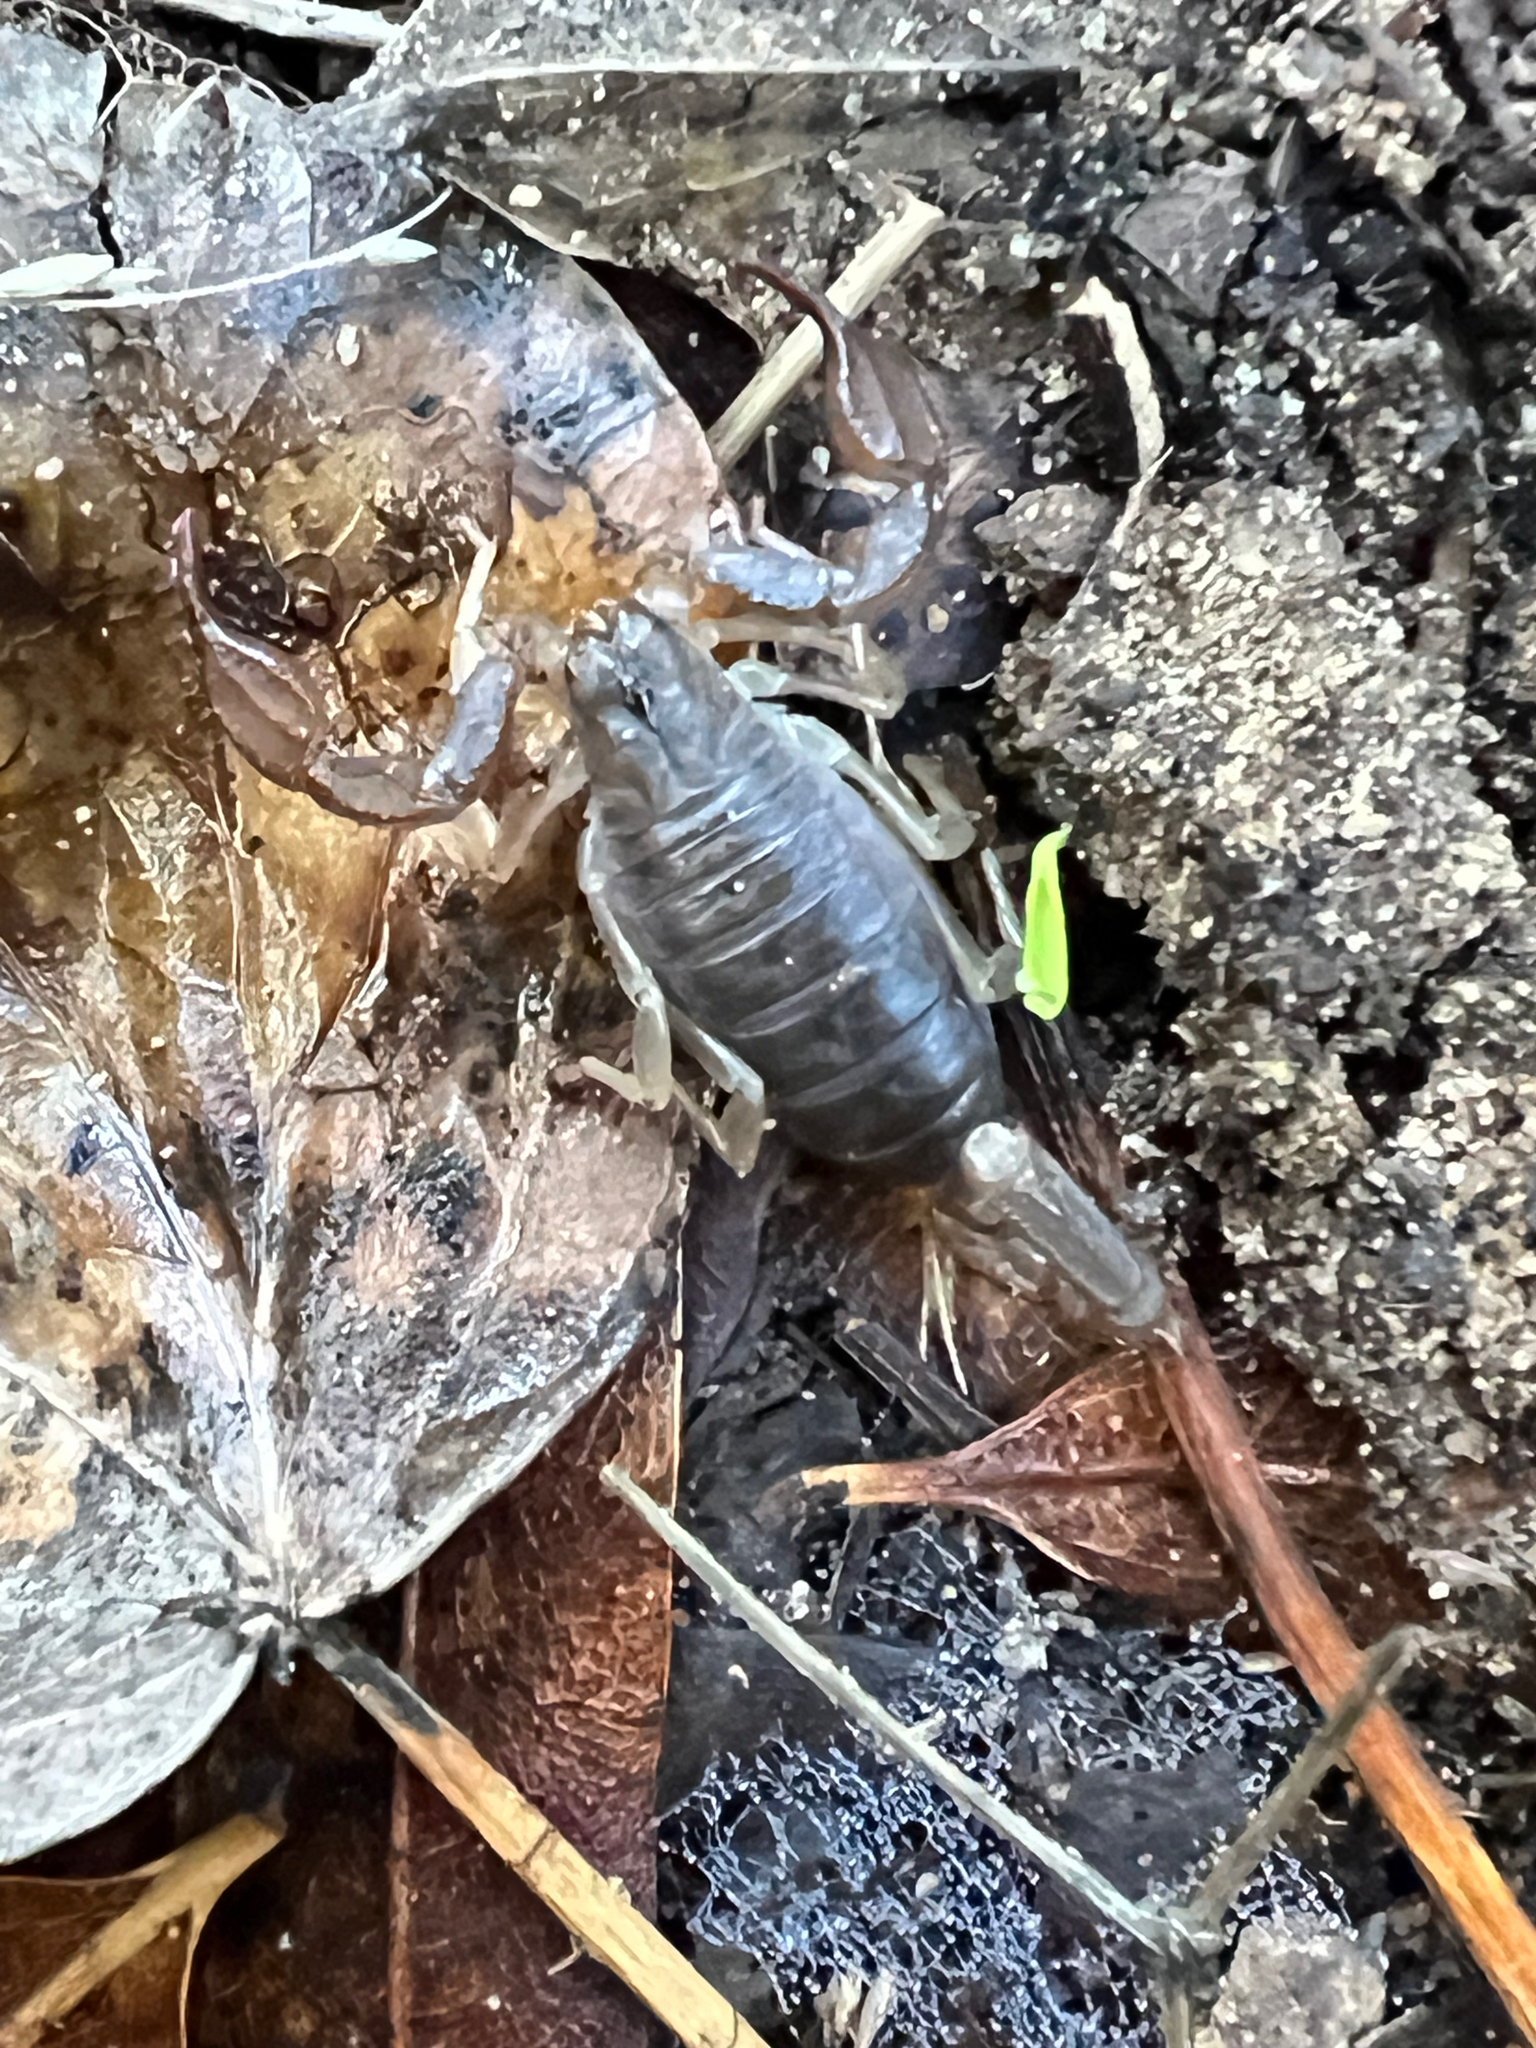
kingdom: Animalia
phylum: Arthropoda
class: Arachnida
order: Scorpiones
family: Chactidae
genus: Uroctonus
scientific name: Uroctonus mordax
